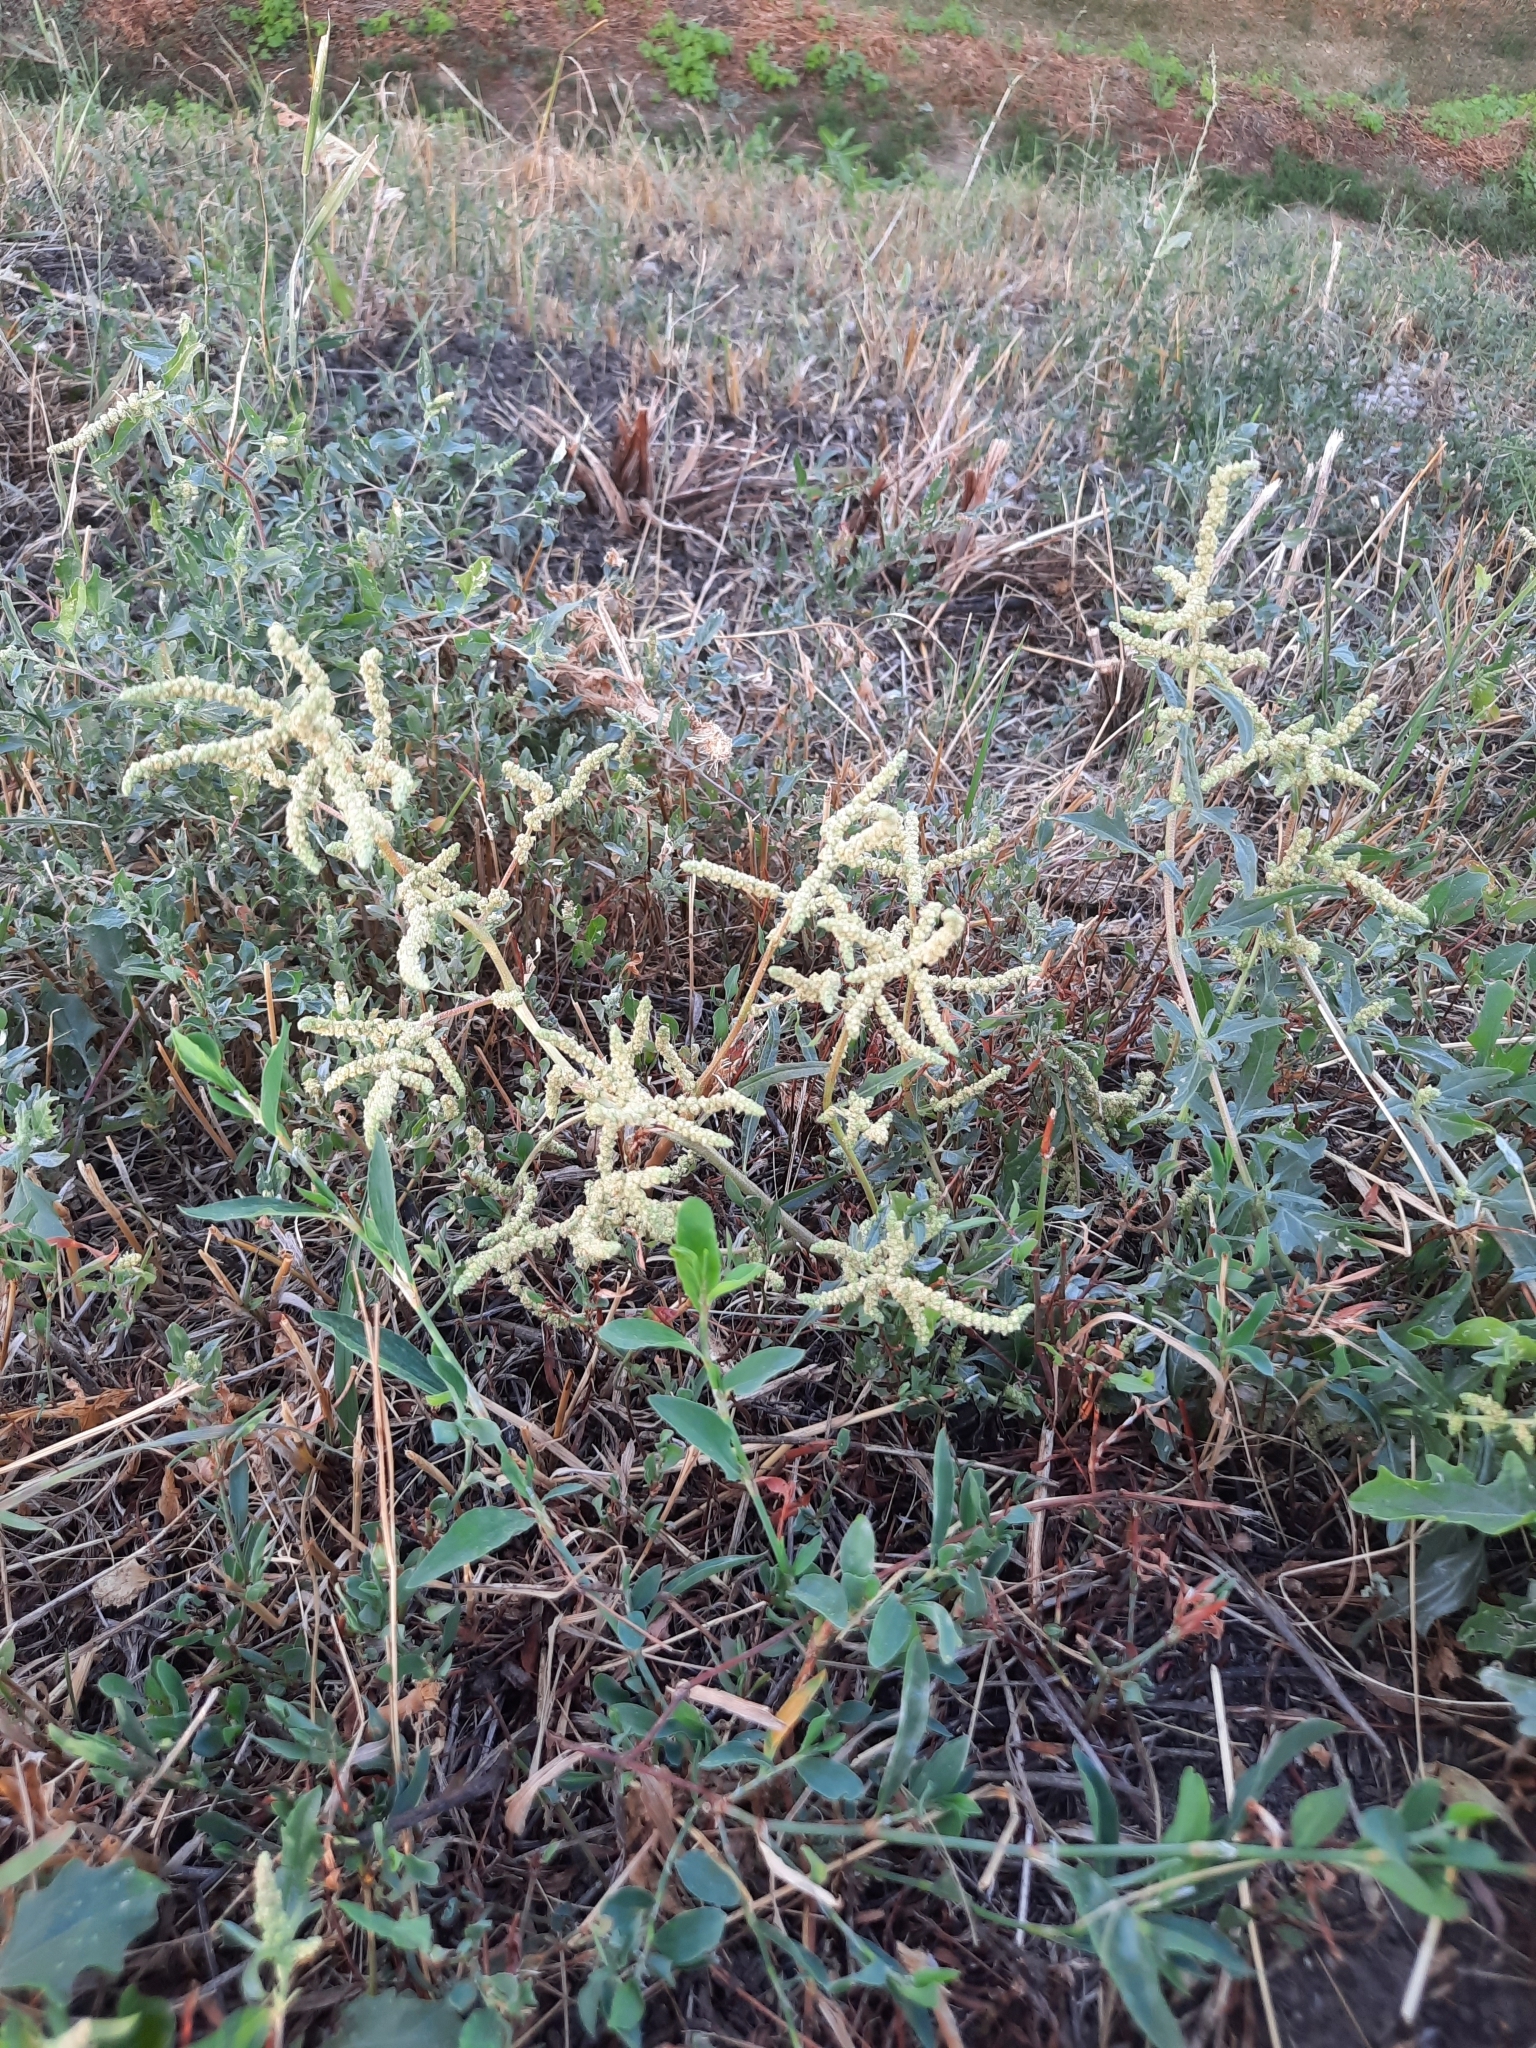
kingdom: Plantae
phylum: Tracheophyta
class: Magnoliopsida
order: Caryophyllales
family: Amaranthaceae
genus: Atriplex
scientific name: Atriplex tatarica
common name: Tatarian orache
